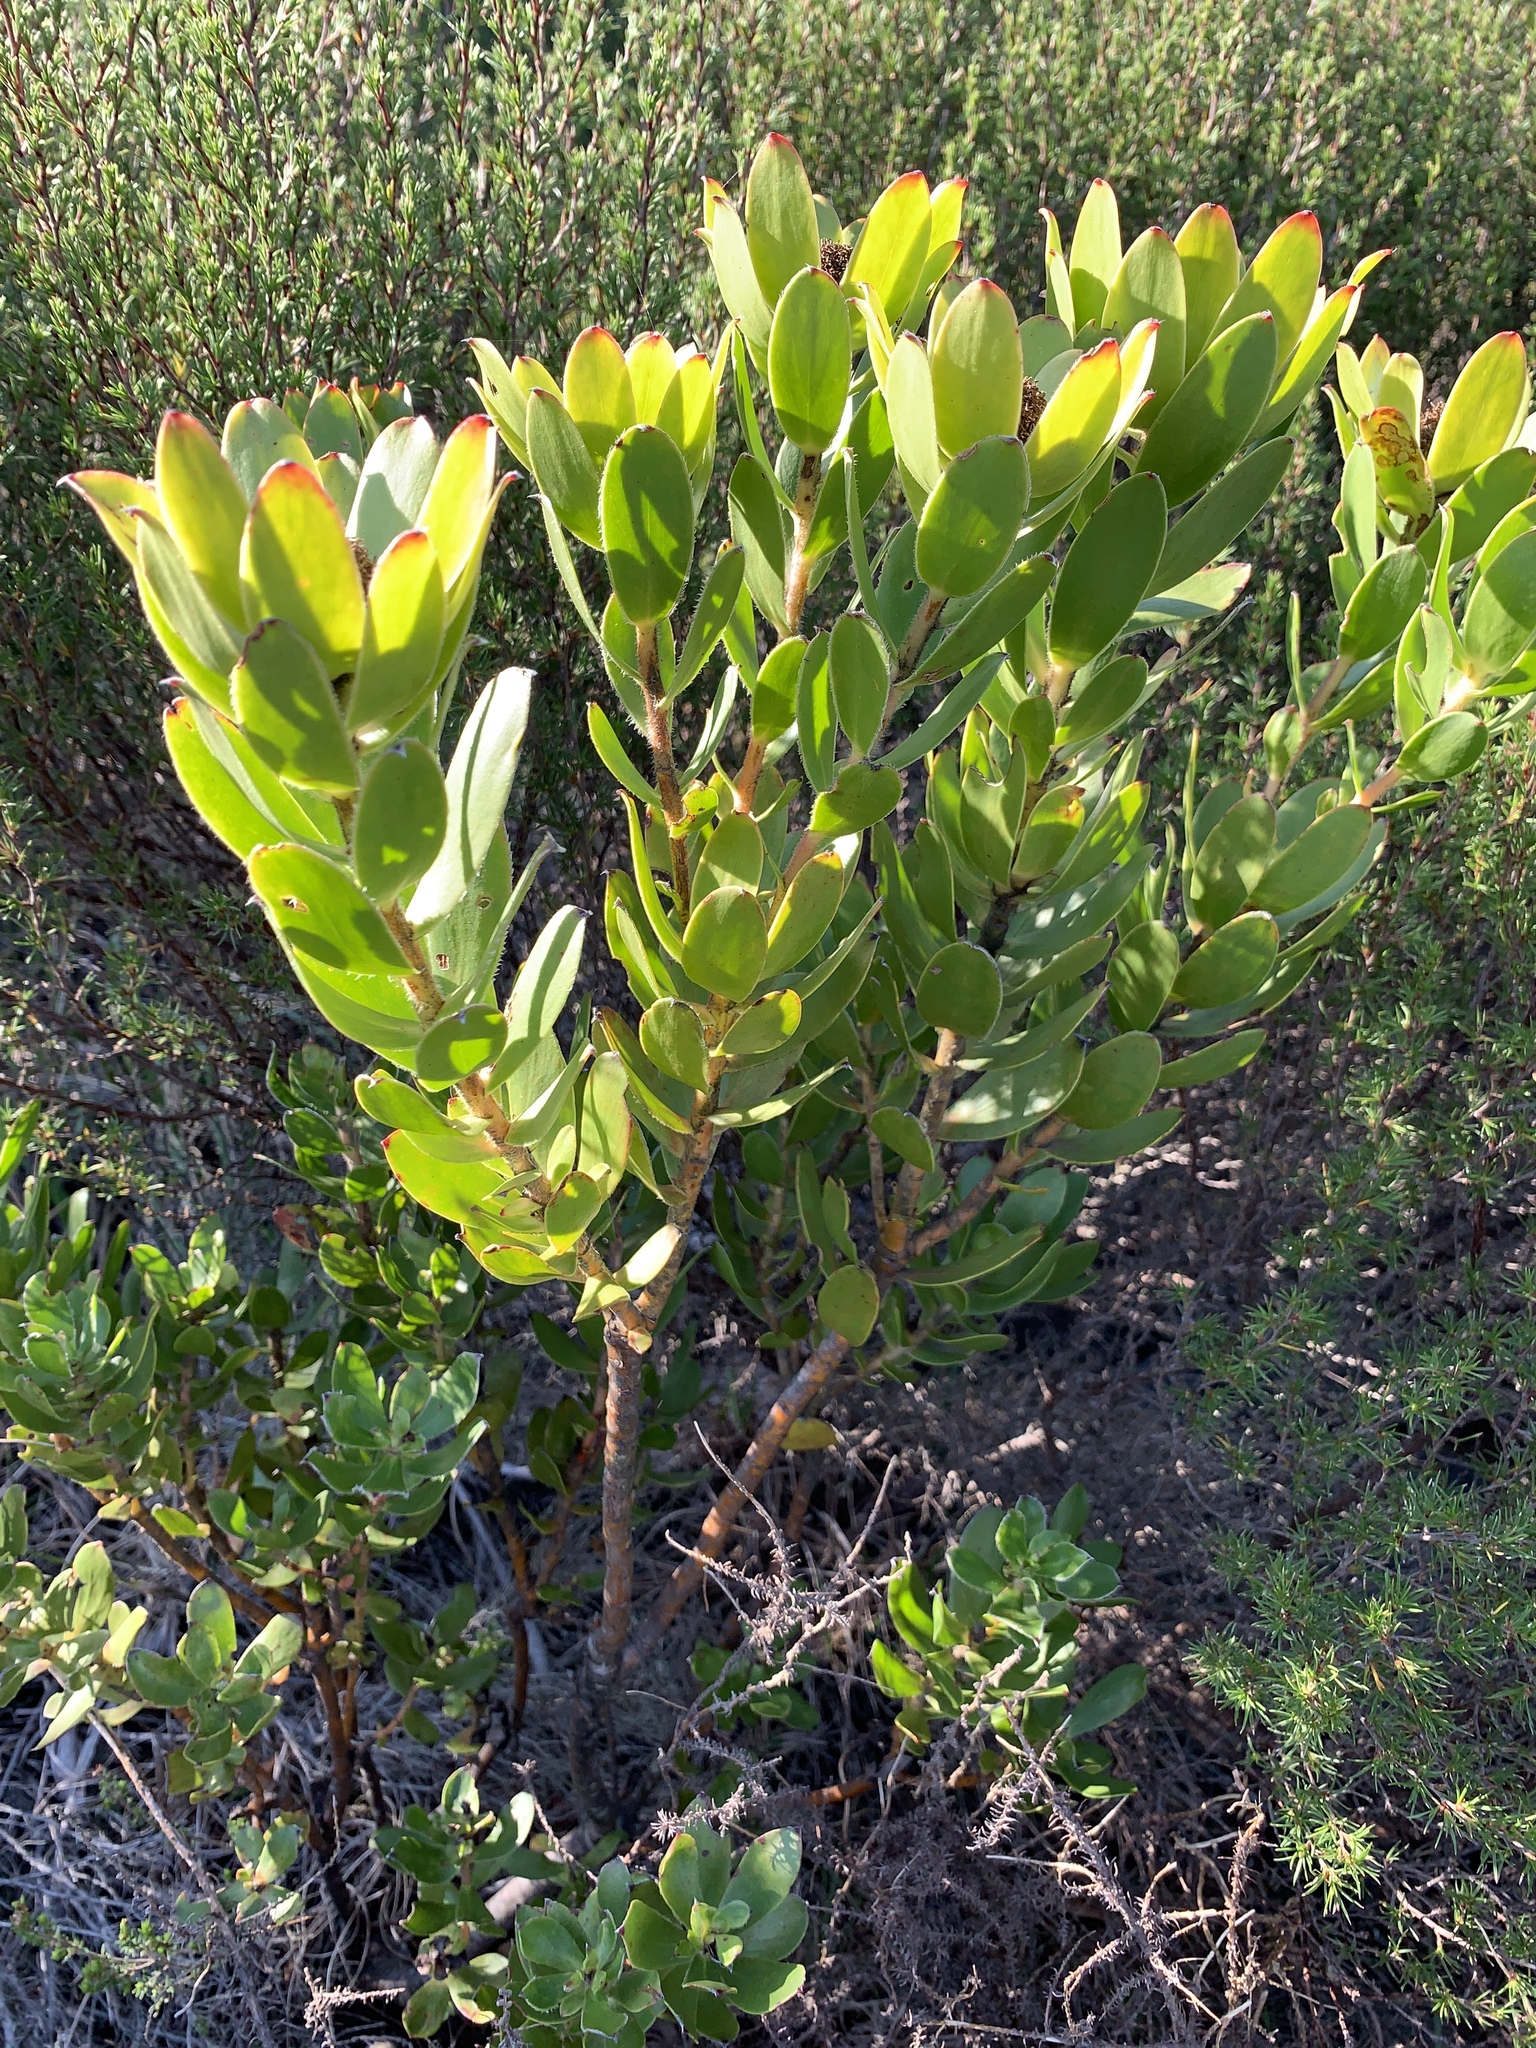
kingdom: Plantae
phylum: Tracheophyta
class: Magnoliopsida
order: Proteales
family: Proteaceae
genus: Leucadendron
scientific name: Leucadendron strobilinum
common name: Mountain rose
